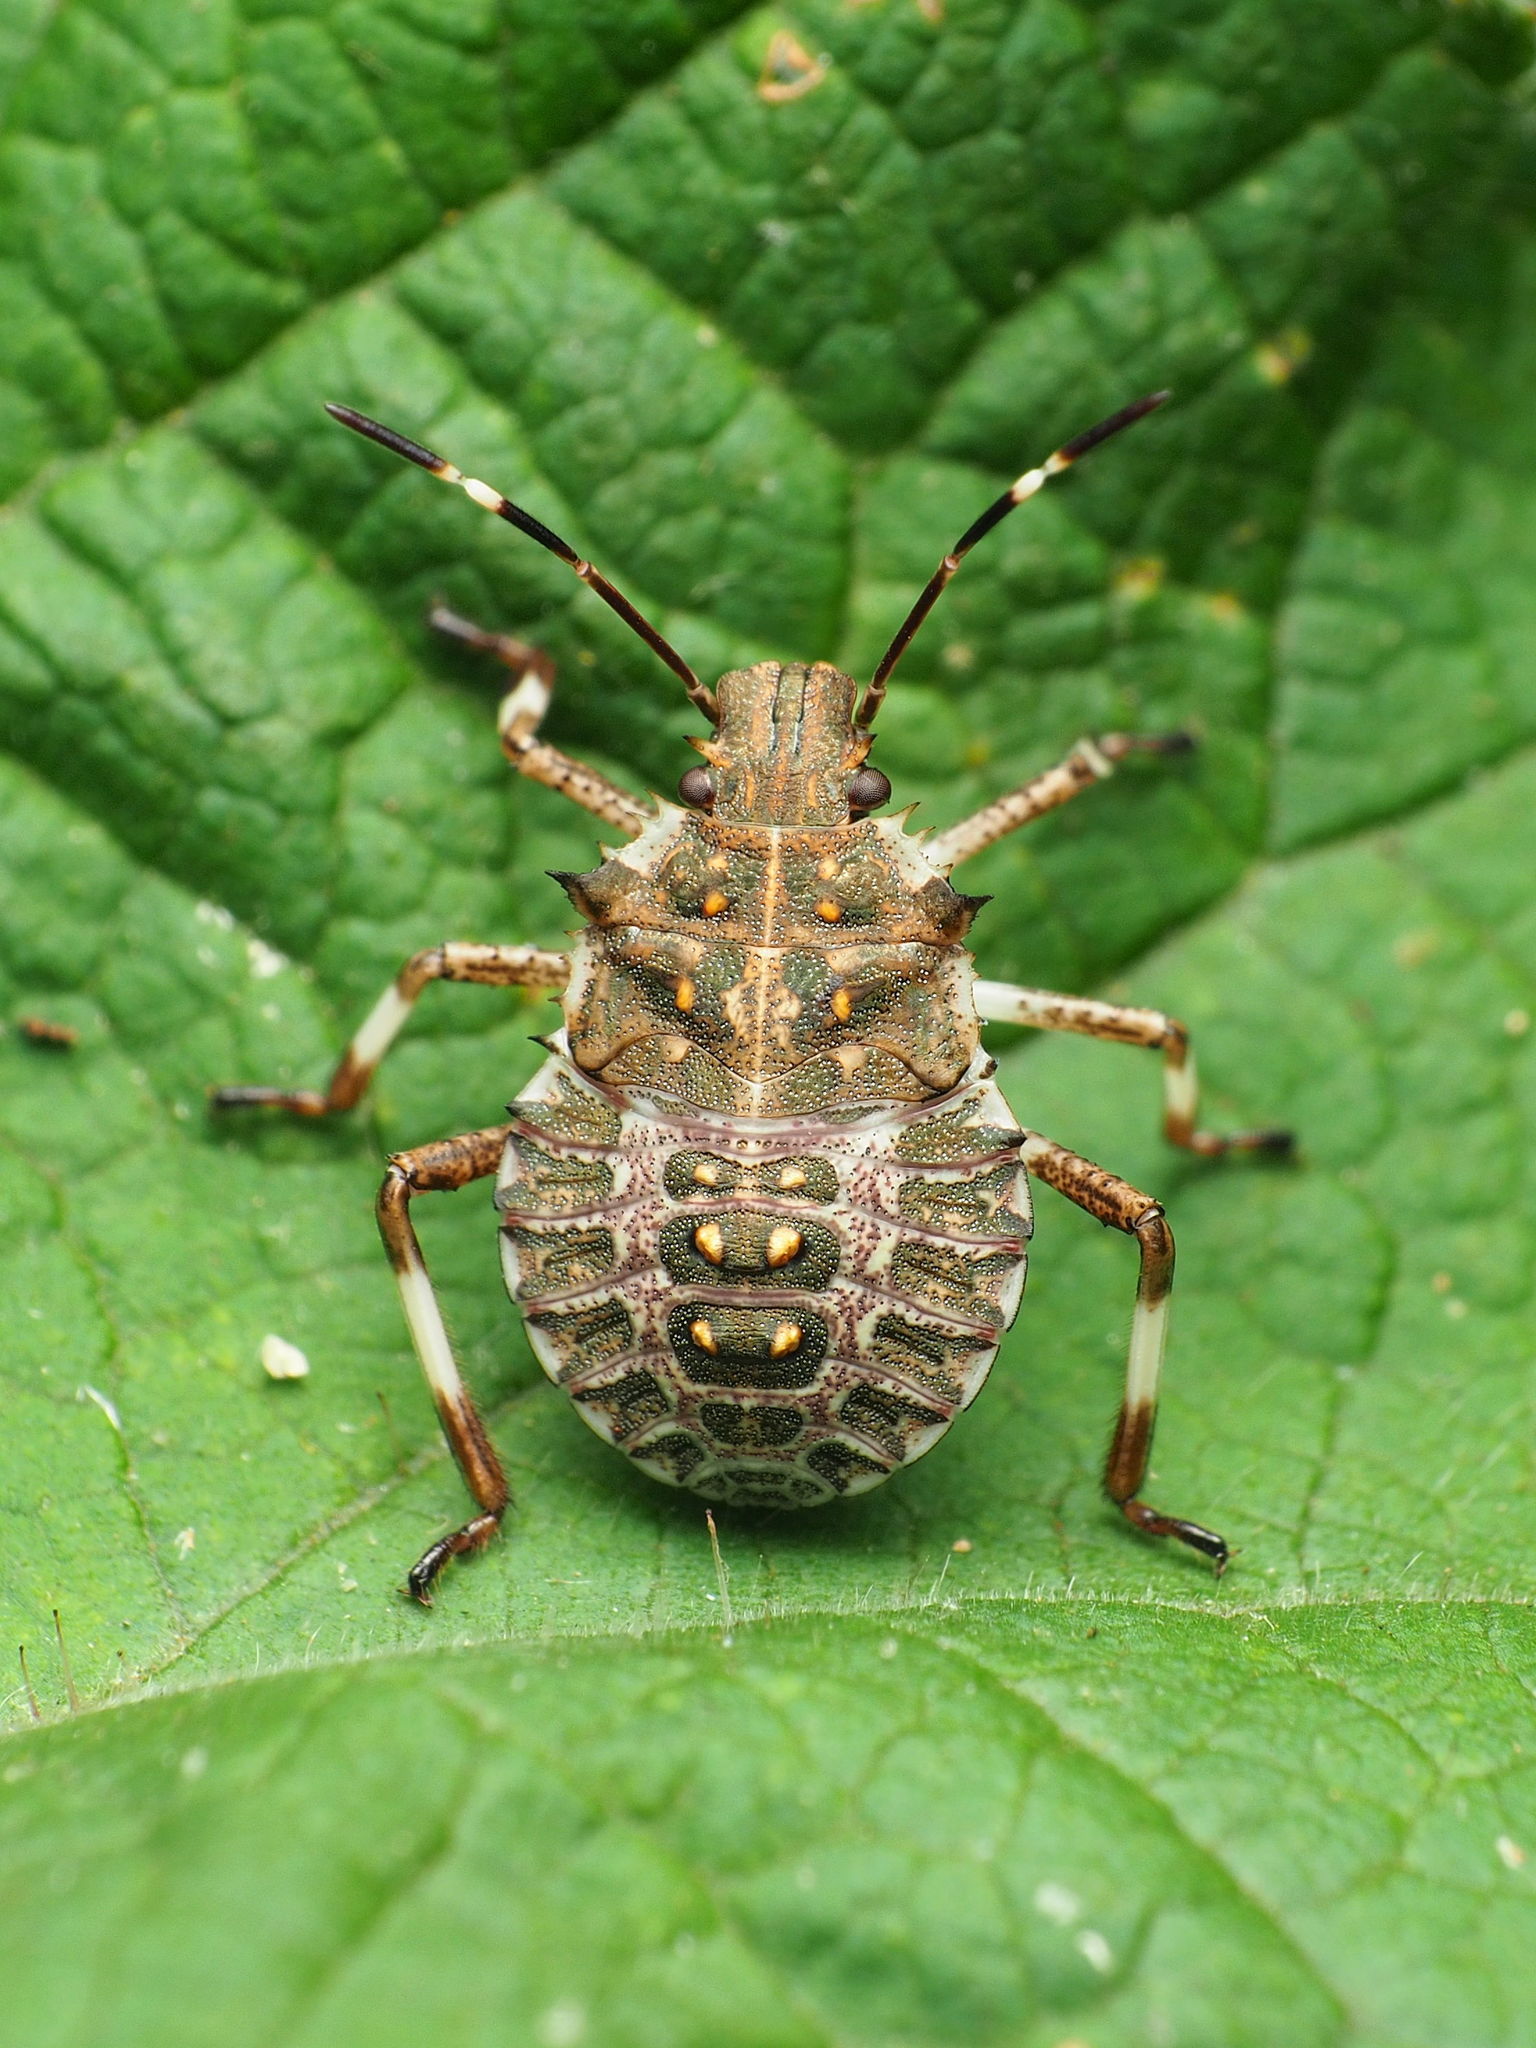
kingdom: Animalia
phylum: Arthropoda
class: Insecta
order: Hemiptera
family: Pentatomidae
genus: Halyomorpha
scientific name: Halyomorpha halys
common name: Brown marmorated stink bug
